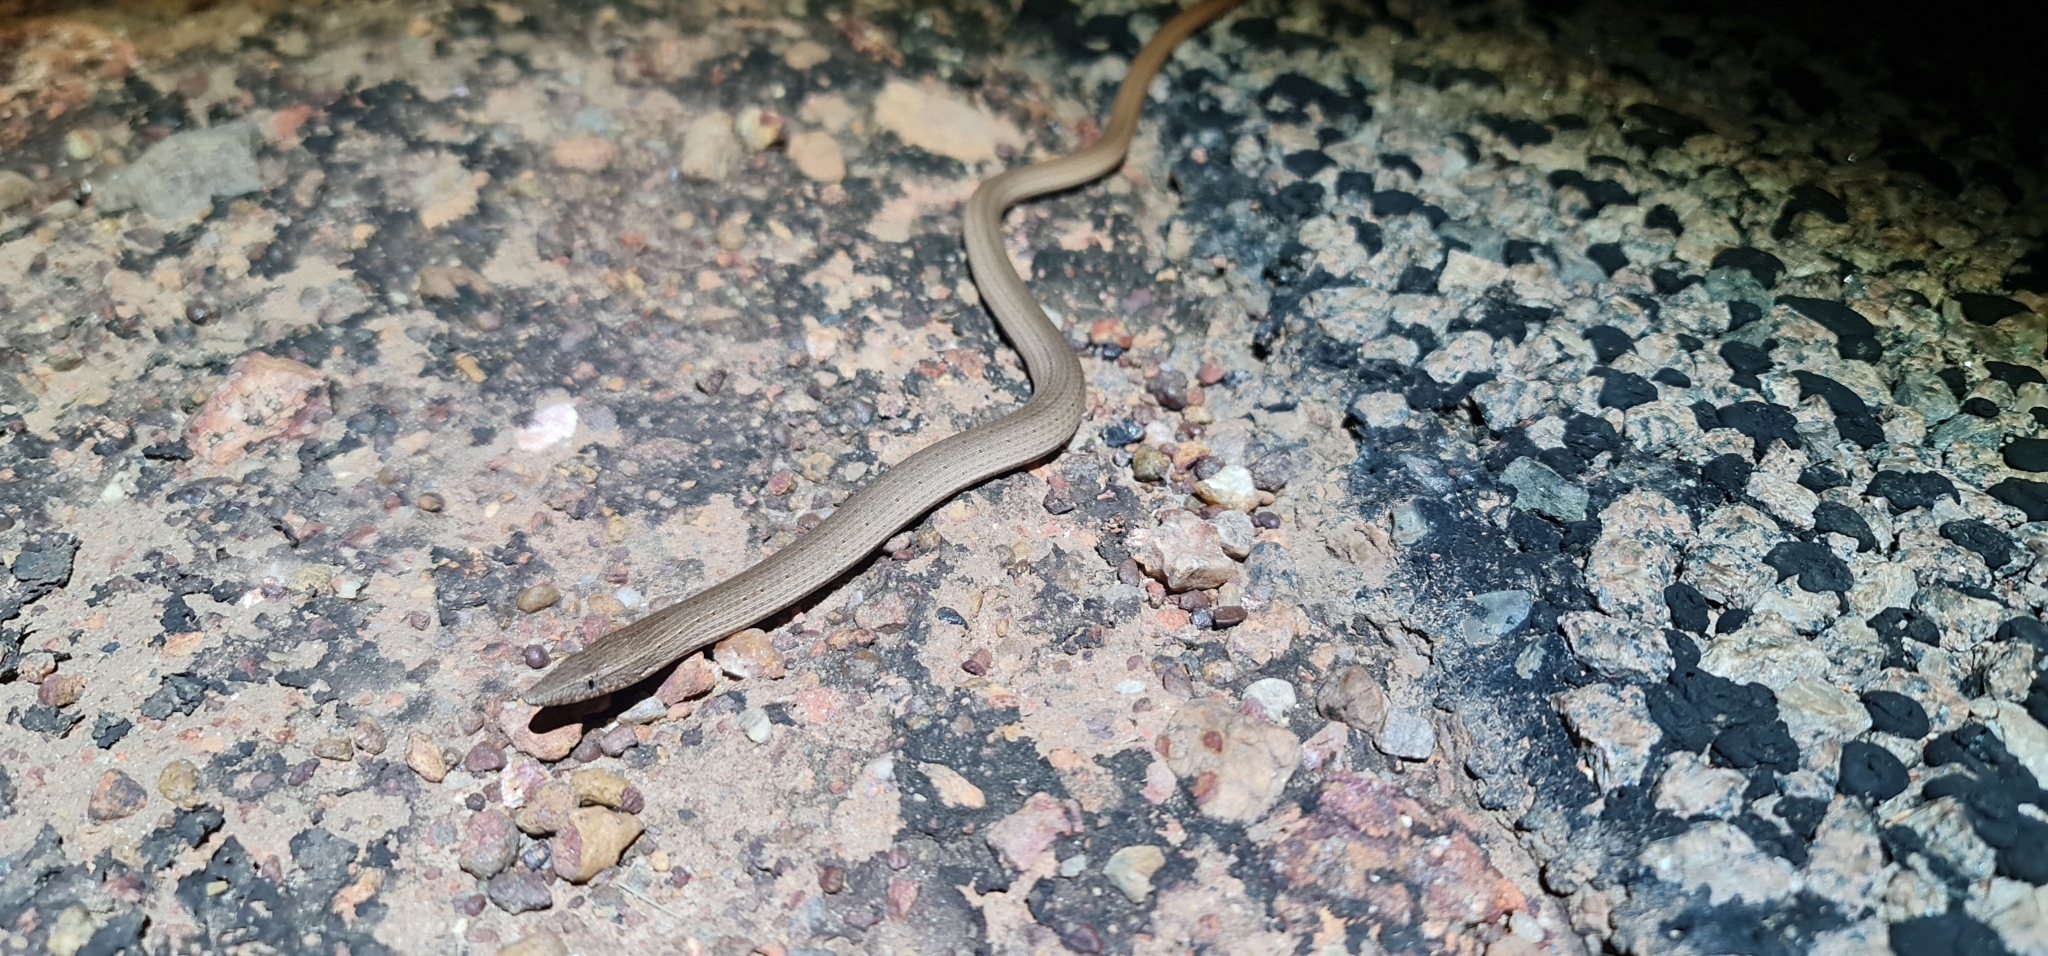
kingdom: Animalia
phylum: Chordata
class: Squamata
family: Pygopodidae
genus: Lialis
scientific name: Lialis burtonis
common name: Burton's legless lizard
